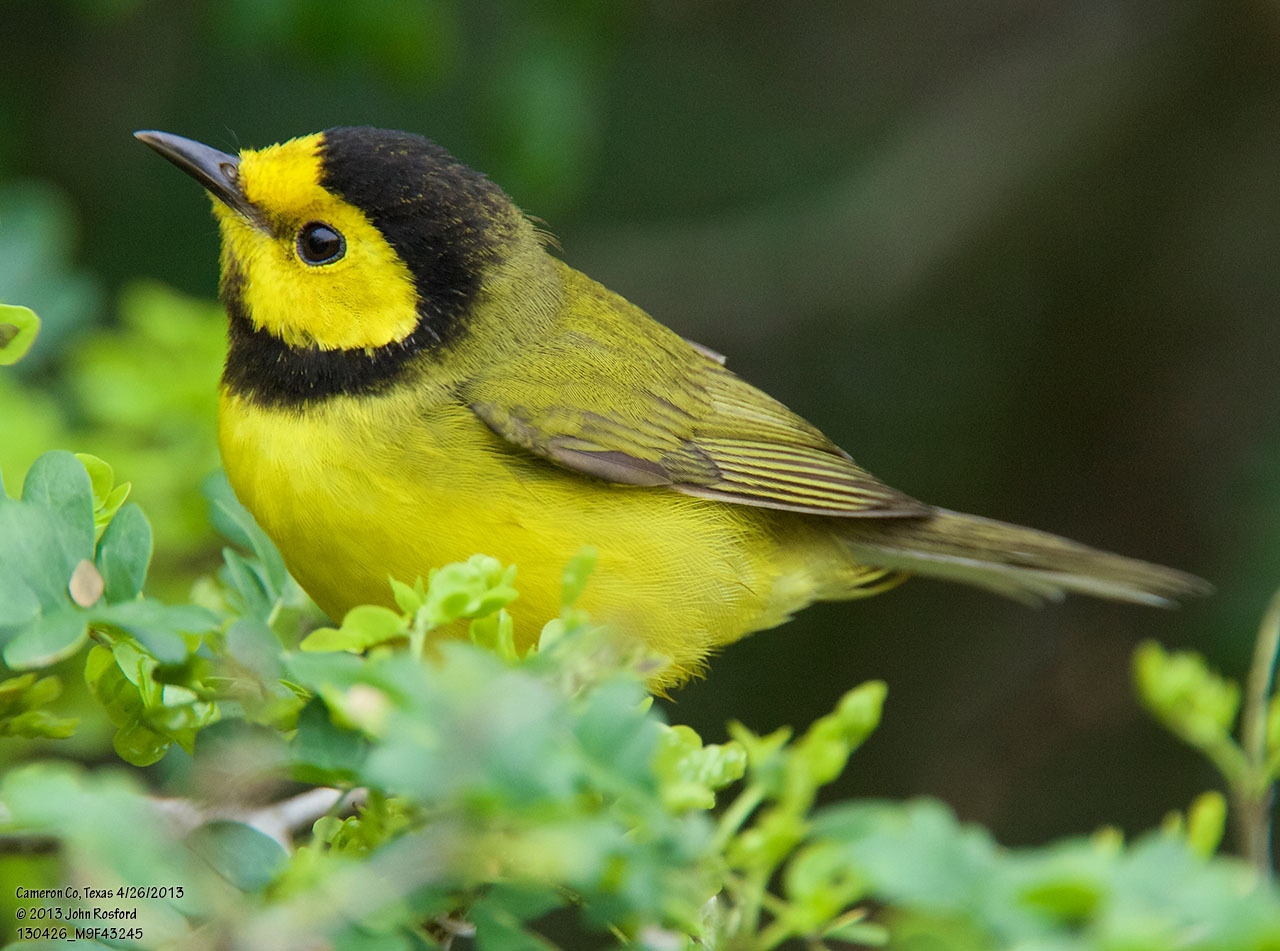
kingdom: Animalia
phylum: Chordata
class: Aves
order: Passeriformes
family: Parulidae
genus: Setophaga
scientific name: Setophaga citrina
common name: Hooded warbler
